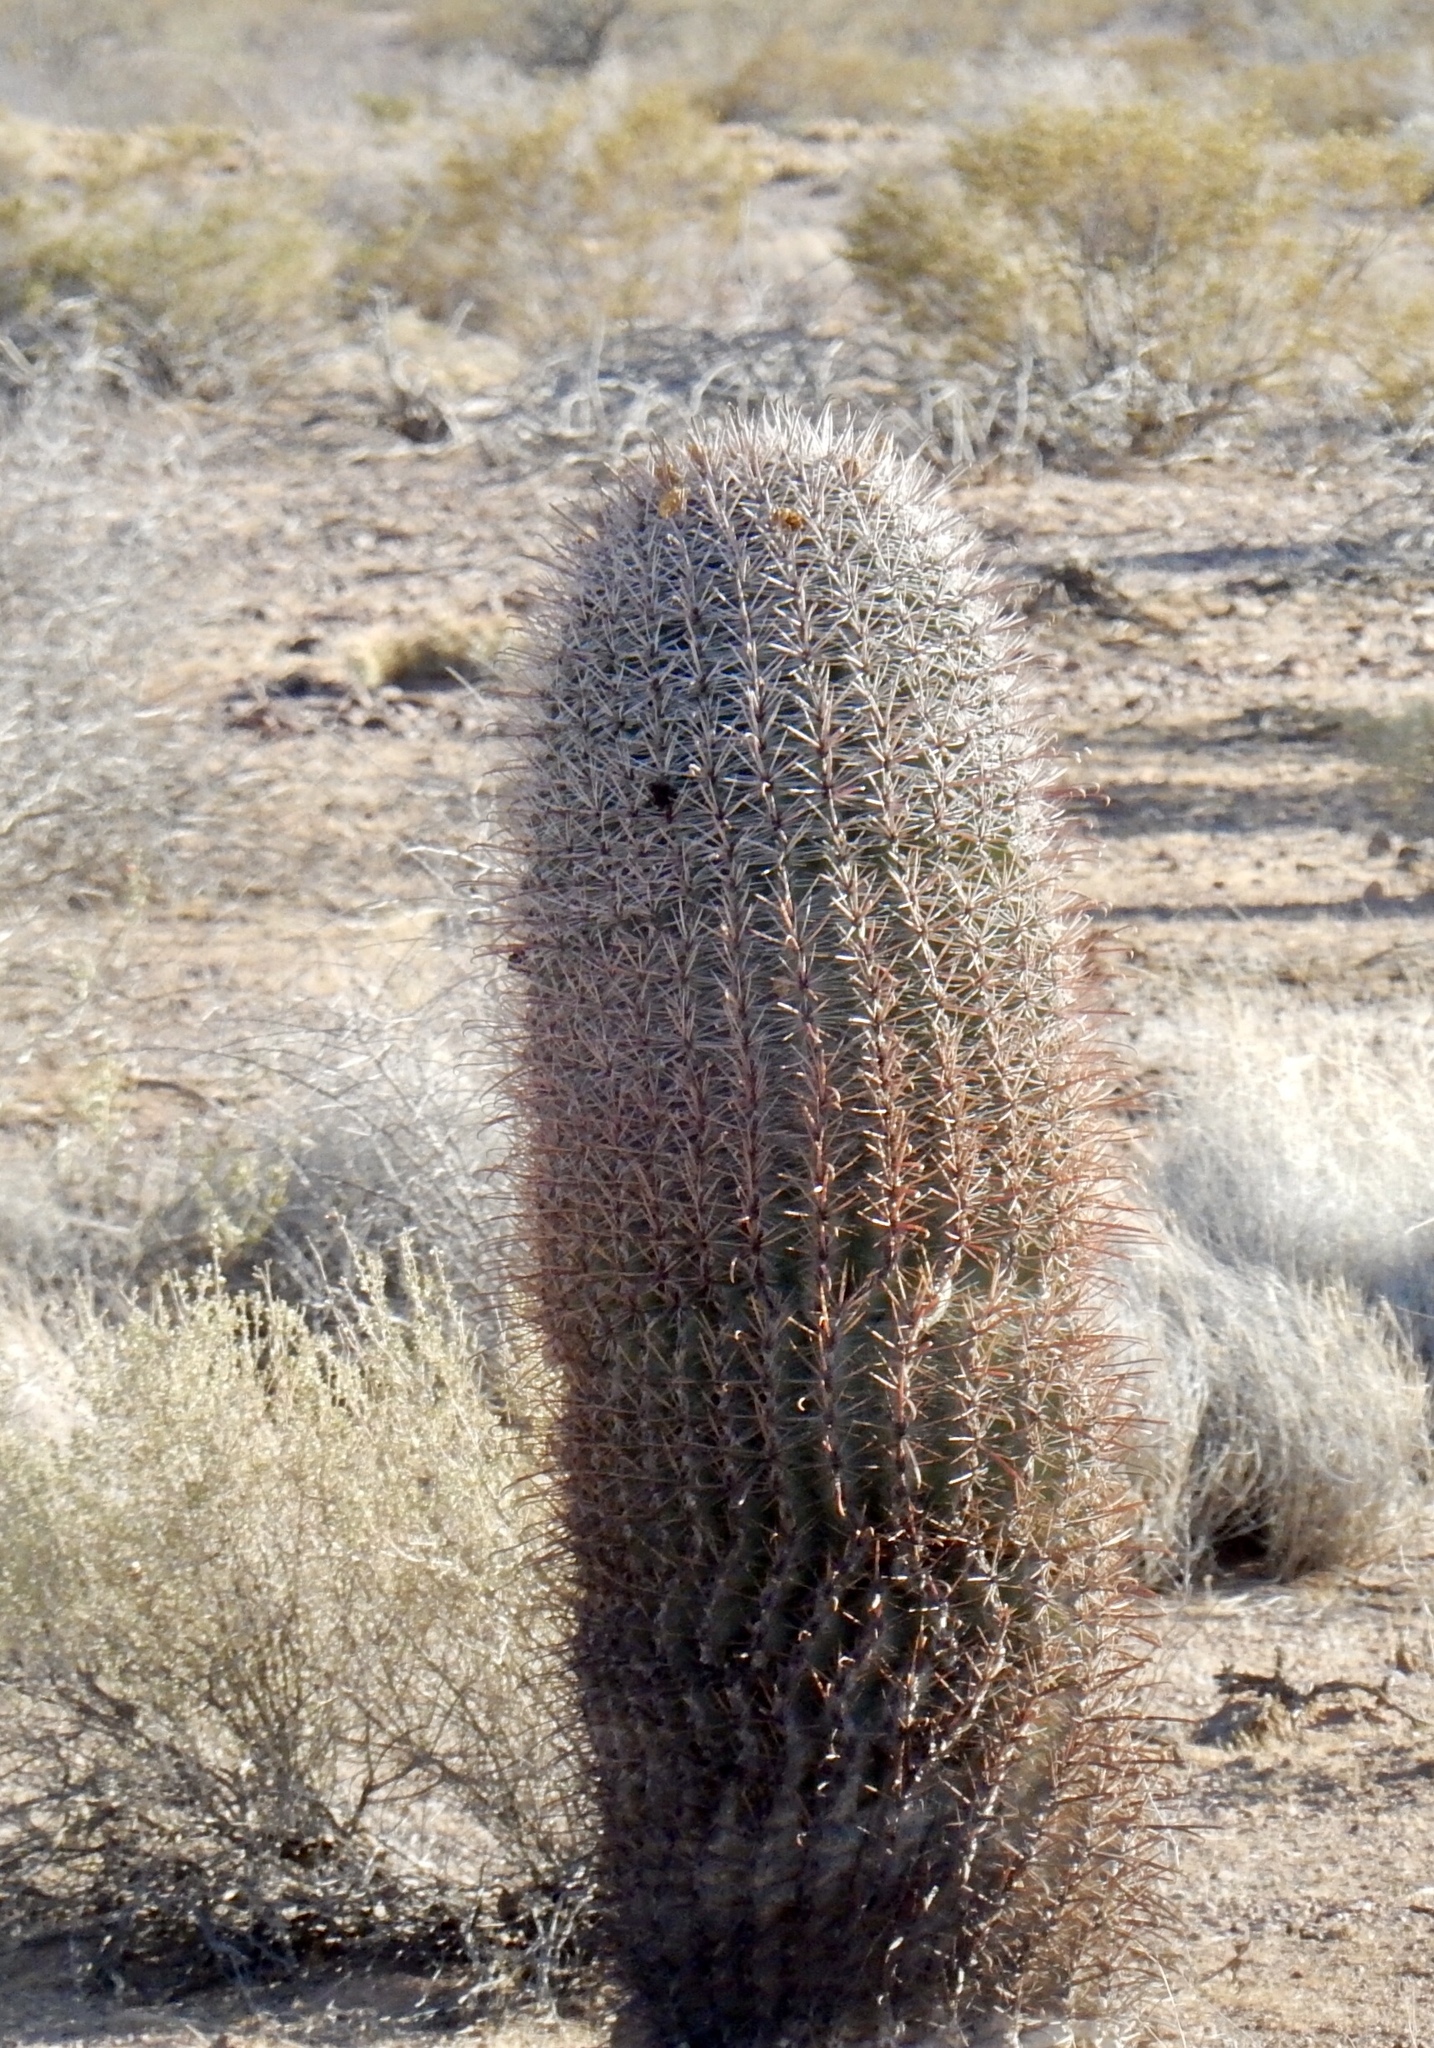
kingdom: Plantae
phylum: Tracheophyta
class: Magnoliopsida
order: Caryophyllales
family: Cactaceae
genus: Ferocactus
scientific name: Ferocactus wislizeni
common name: Candy barrel cactus
